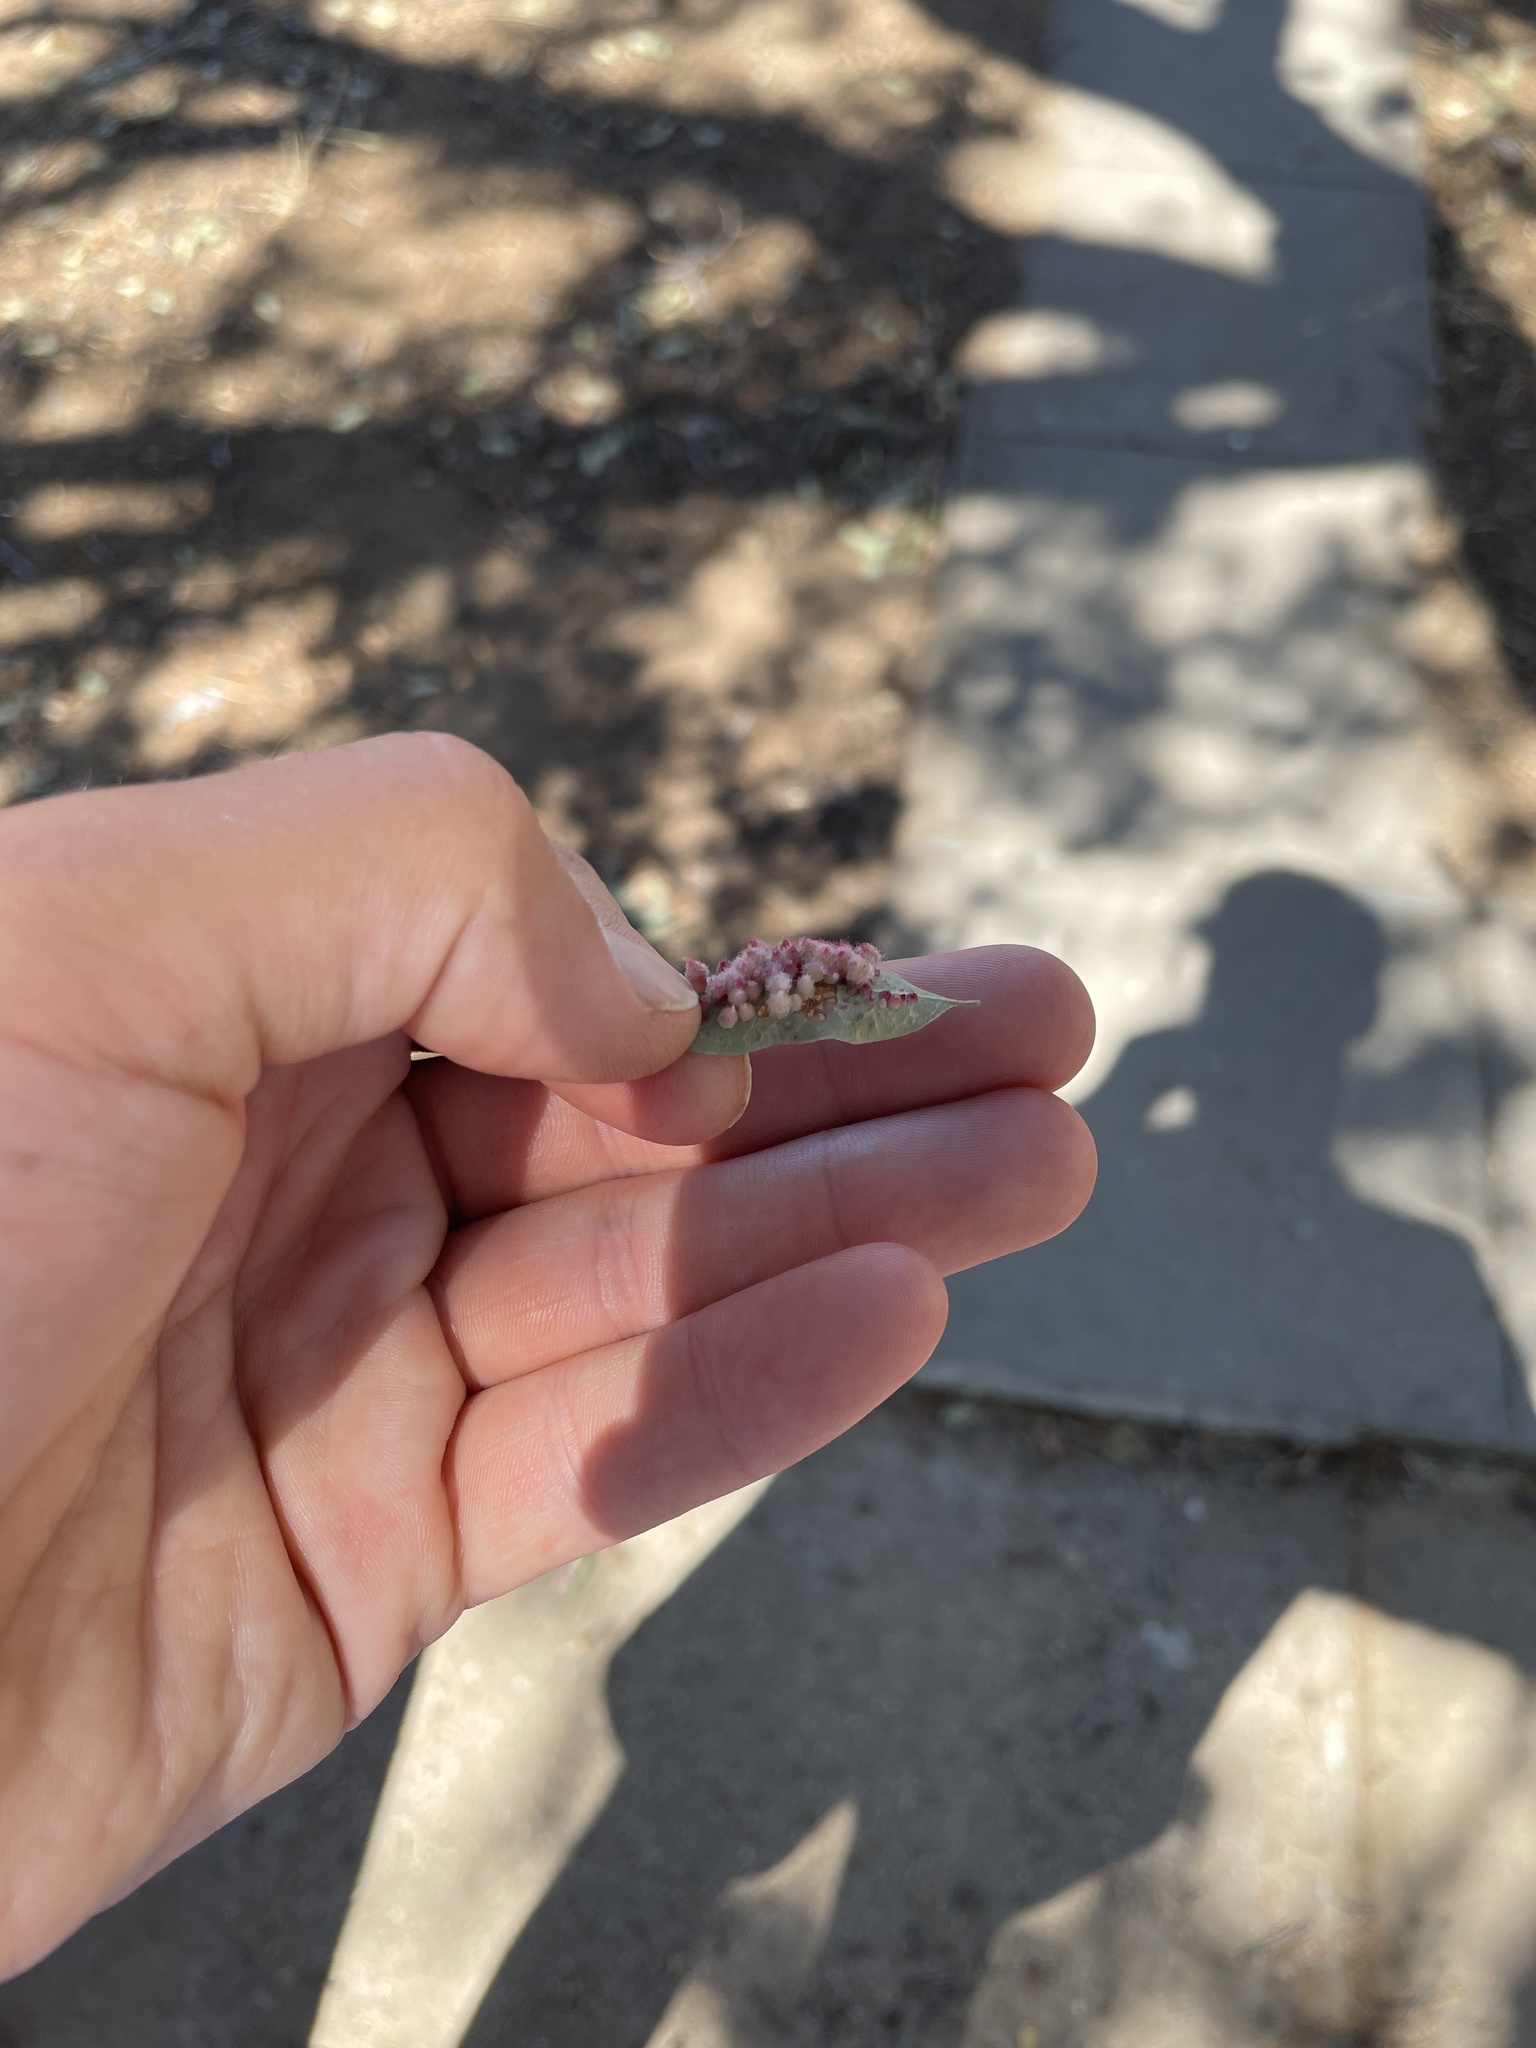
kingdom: Animalia
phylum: Arthropoda
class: Insecta
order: Hymenoptera
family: Cynipidae
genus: Andricus
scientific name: Andricus
